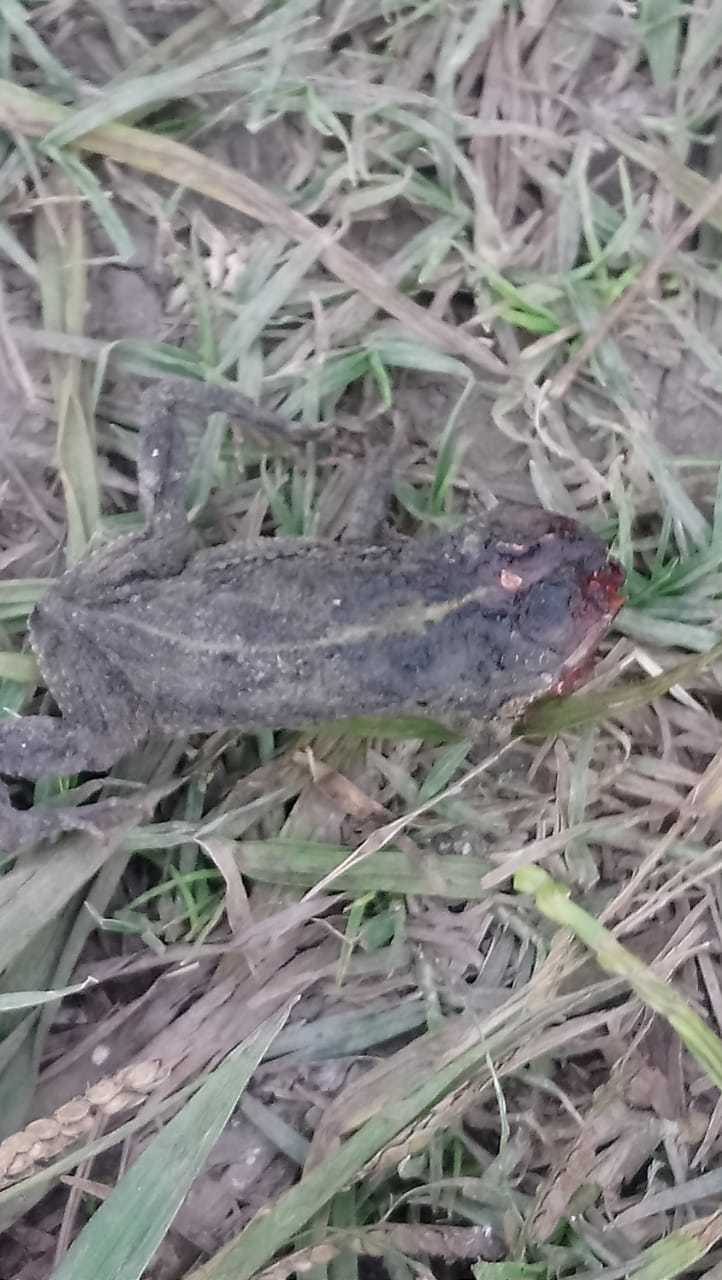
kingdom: Animalia
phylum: Chordata
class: Amphibia
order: Anura
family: Bufonidae
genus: Rhinella
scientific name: Rhinella dorbignyi
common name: D´orbigny’s toad
